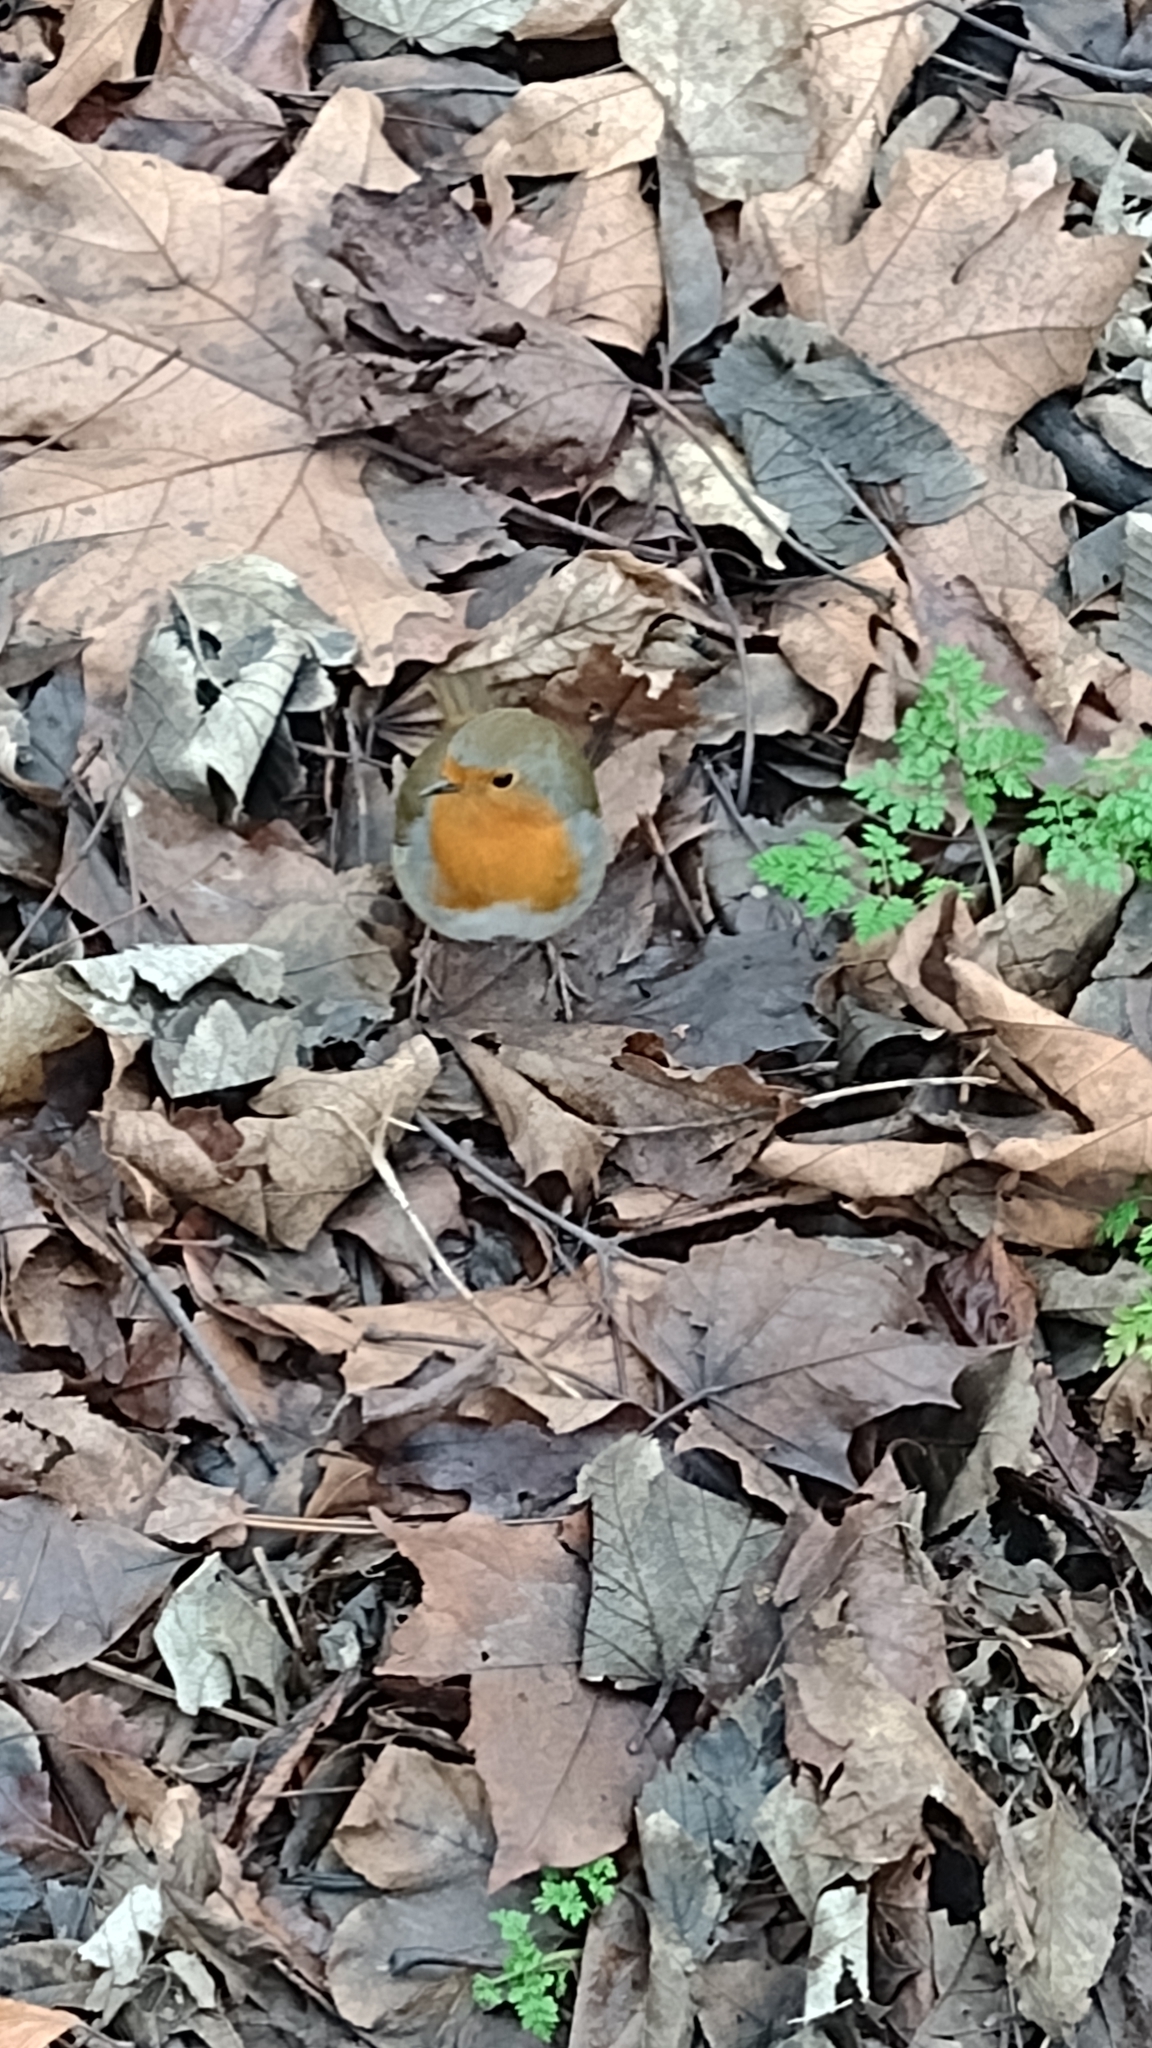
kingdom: Animalia
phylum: Chordata
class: Aves
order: Passeriformes
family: Muscicapidae
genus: Erithacus
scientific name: Erithacus rubecula
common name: European robin
